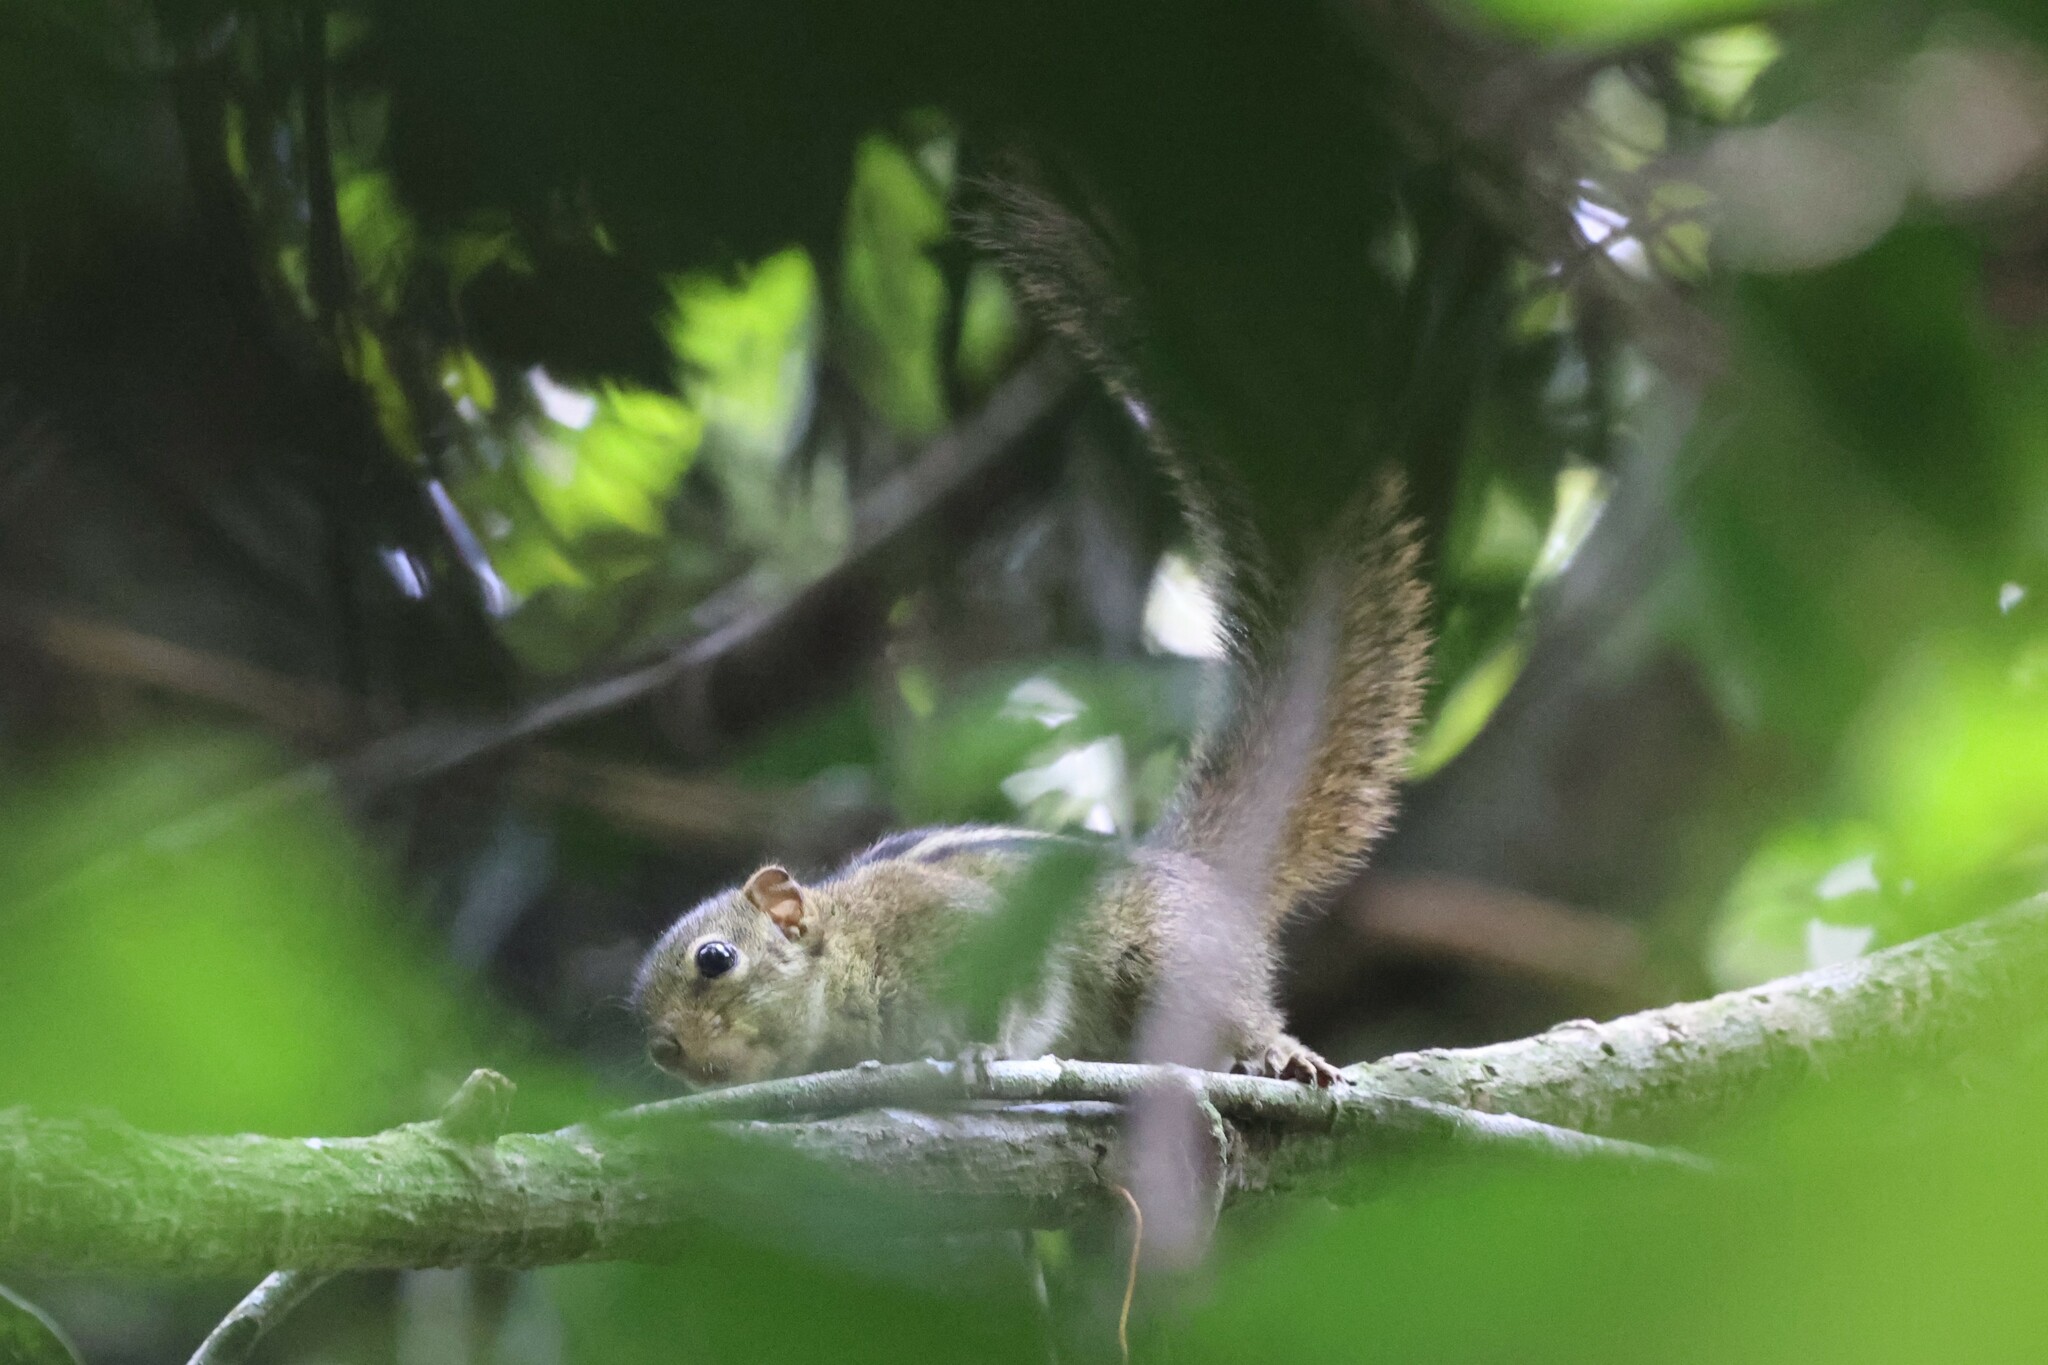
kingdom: Animalia
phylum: Chordata
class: Mammalia
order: Rodentia
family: Sciuridae
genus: Paraxerus
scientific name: Paraxerus boehmi
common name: Boehm's bush squirrel
